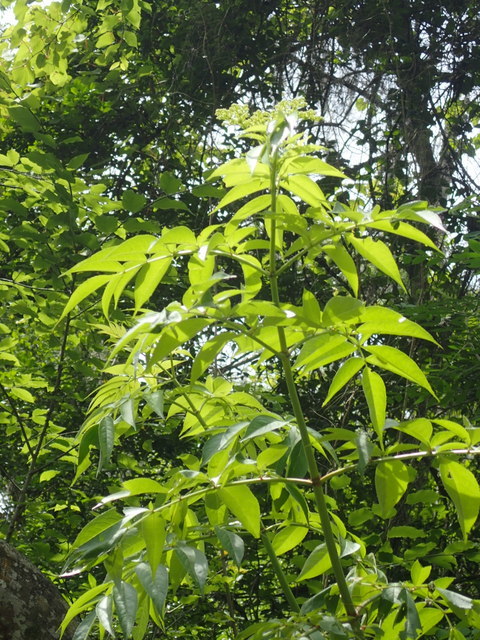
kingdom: Plantae
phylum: Tracheophyta
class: Magnoliopsida
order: Dipsacales
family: Viburnaceae
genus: Sambucus
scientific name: Sambucus canadensis
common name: American elder
